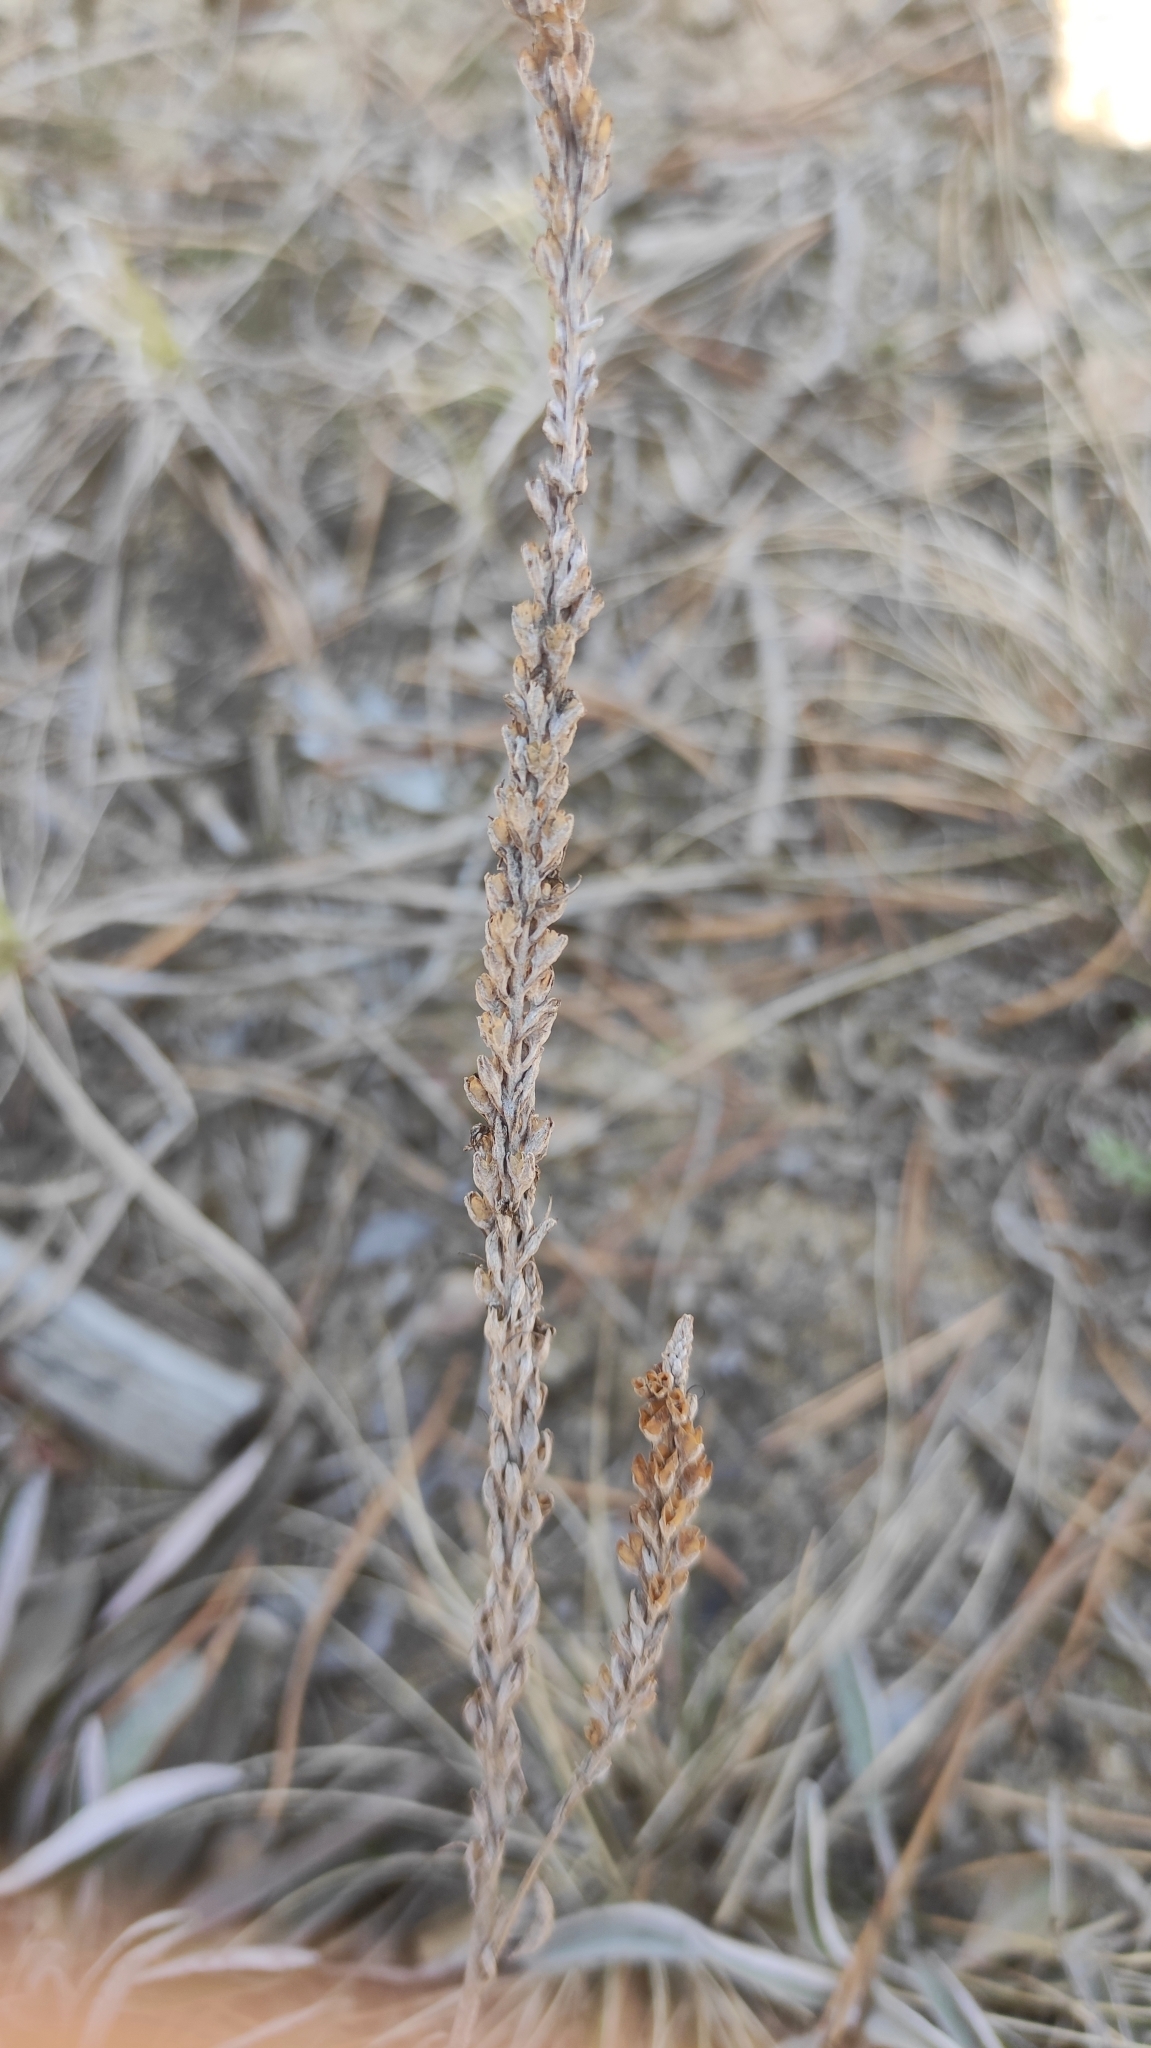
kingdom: Plantae
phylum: Tracheophyta
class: Magnoliopsida
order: Lamiales
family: Plantaginaceae
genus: Veronica
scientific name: Veronica incana
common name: Silver speedwell
